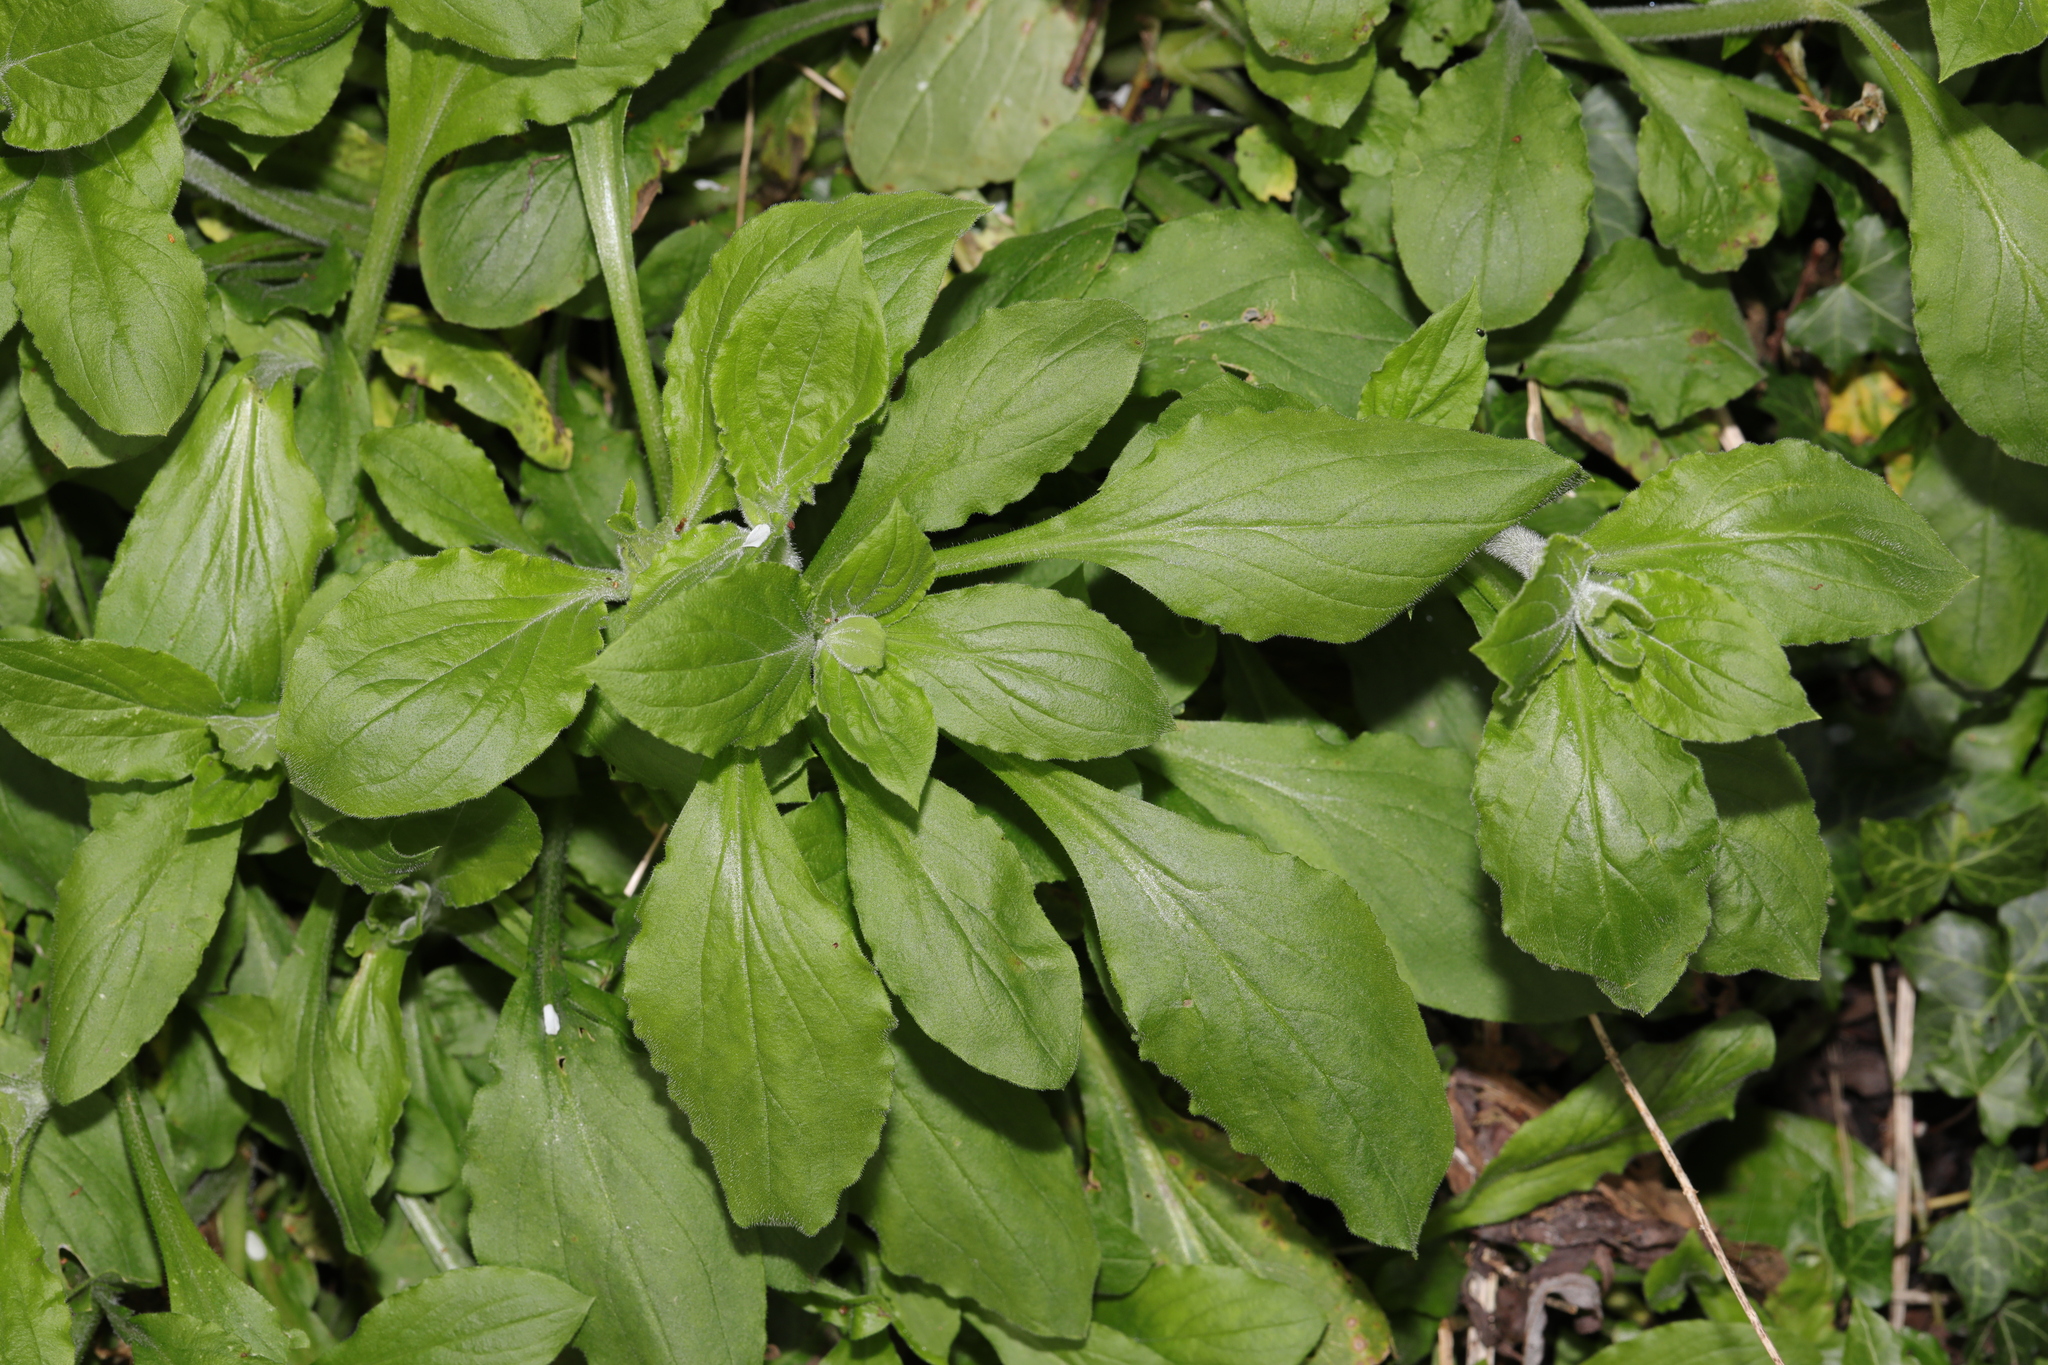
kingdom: Plantae
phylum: Tracheophyta
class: Magnoliopsida
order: Caryophyllales
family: Caryophyllaceae
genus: Silene
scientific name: Silene dioica
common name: Red campion
